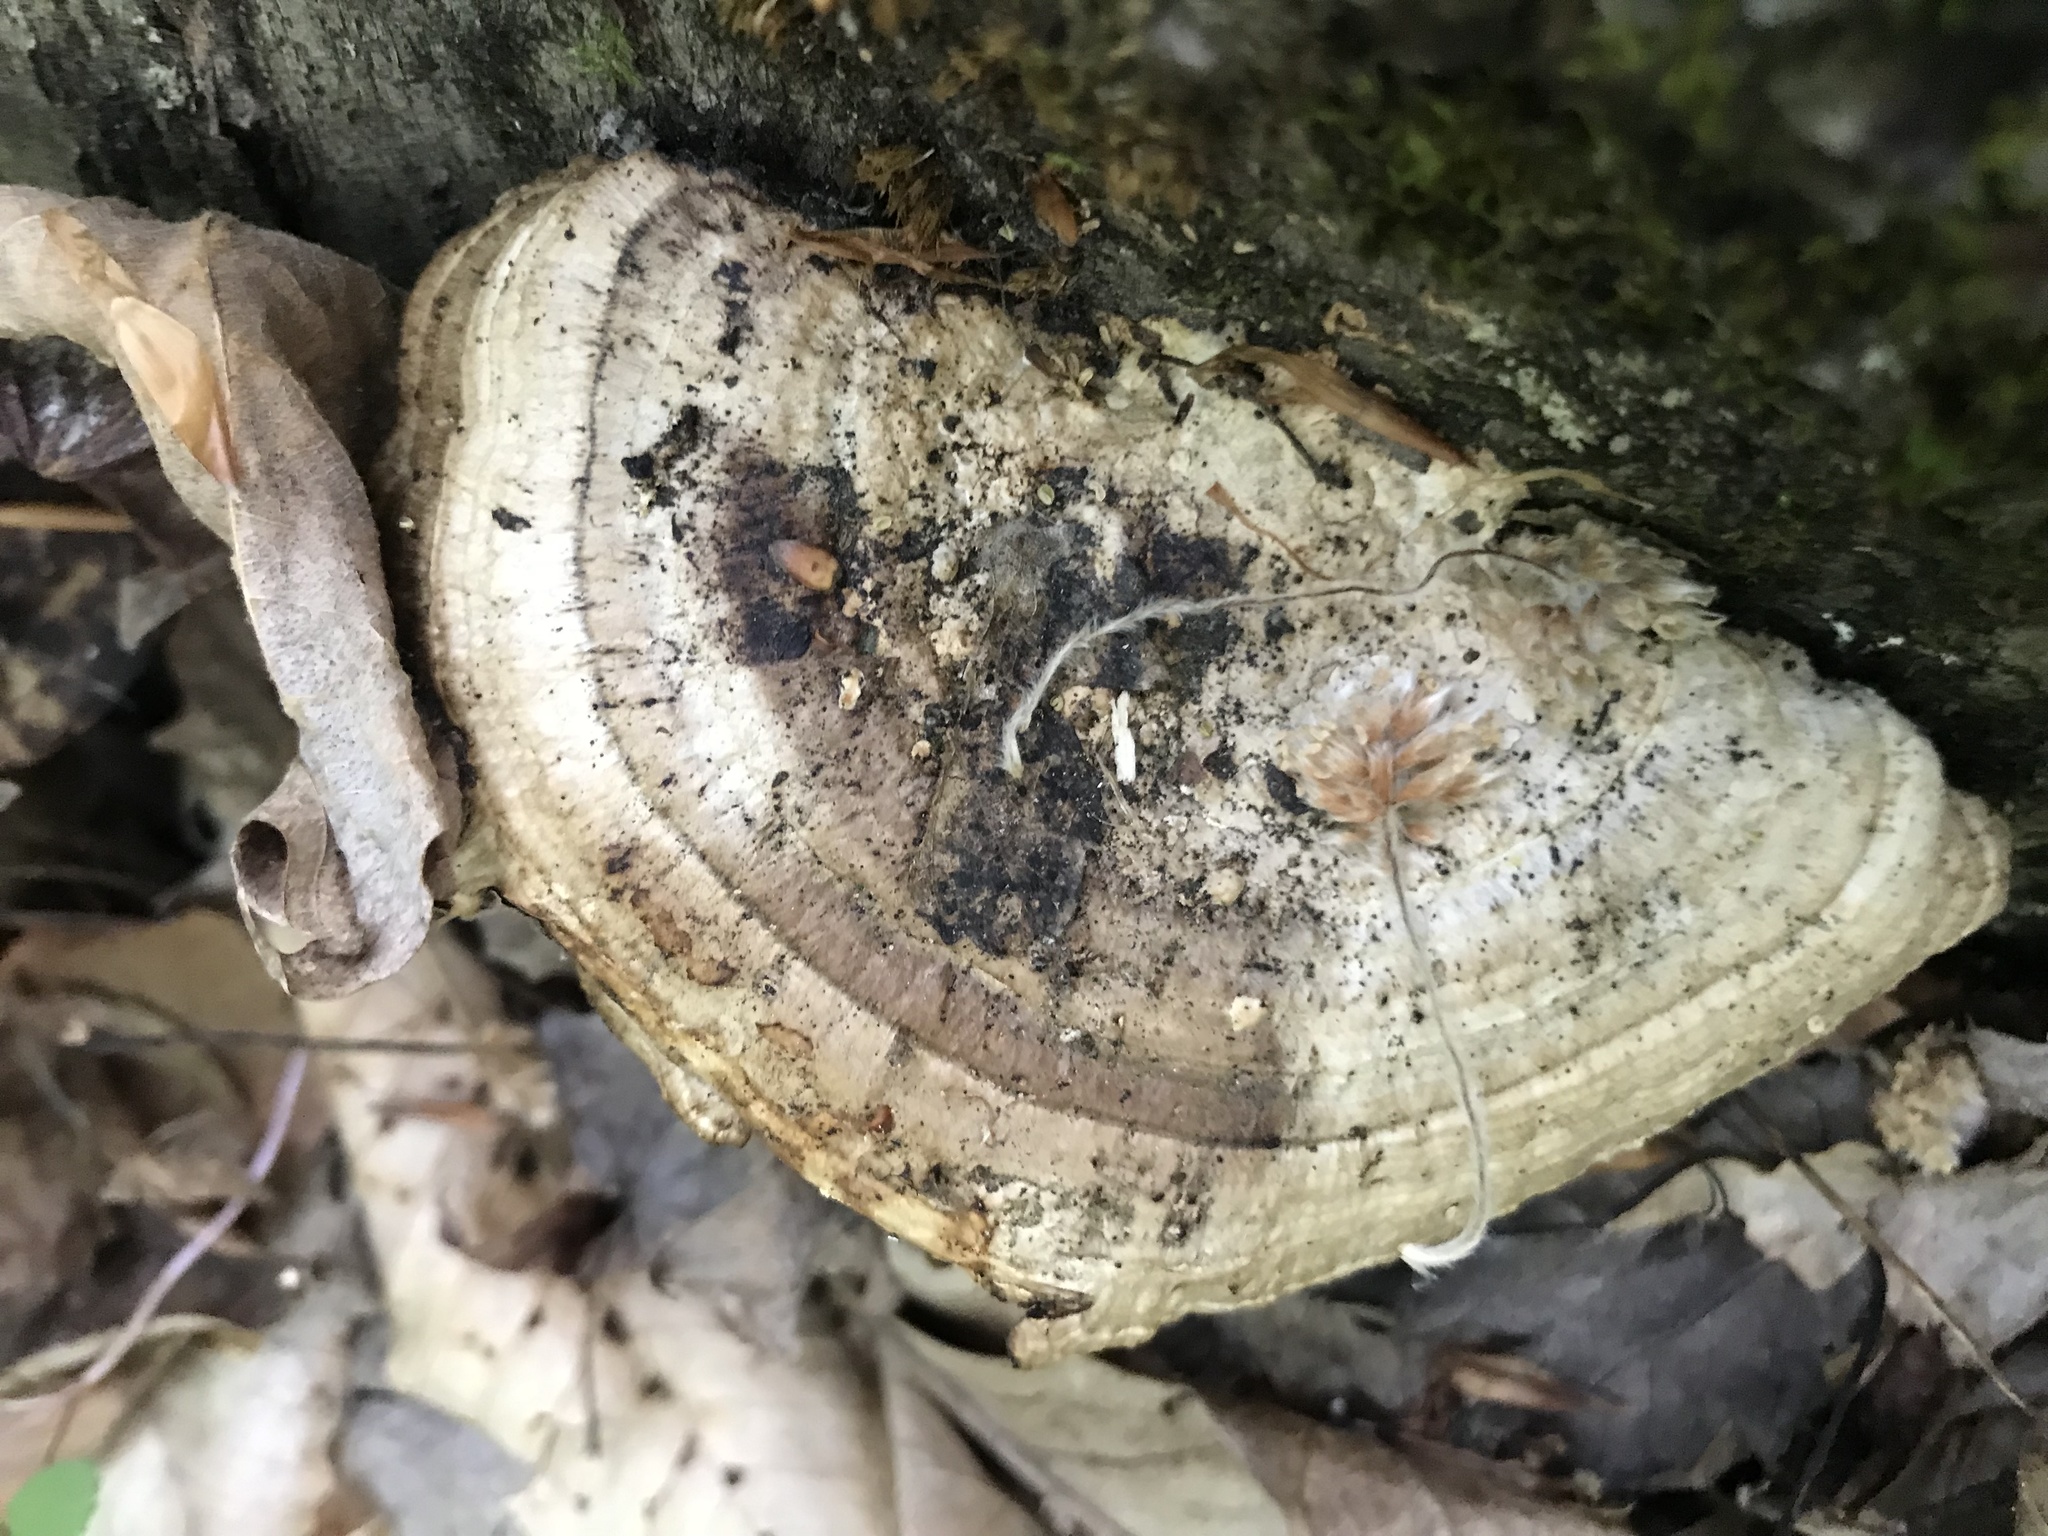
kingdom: Fungi
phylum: Basidiomycota
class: Agaricomycetes
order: Polyporales
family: Polyporaceae
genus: Daedaleopsis
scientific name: Daedaleopsis confragosa
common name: Blushing bracket
